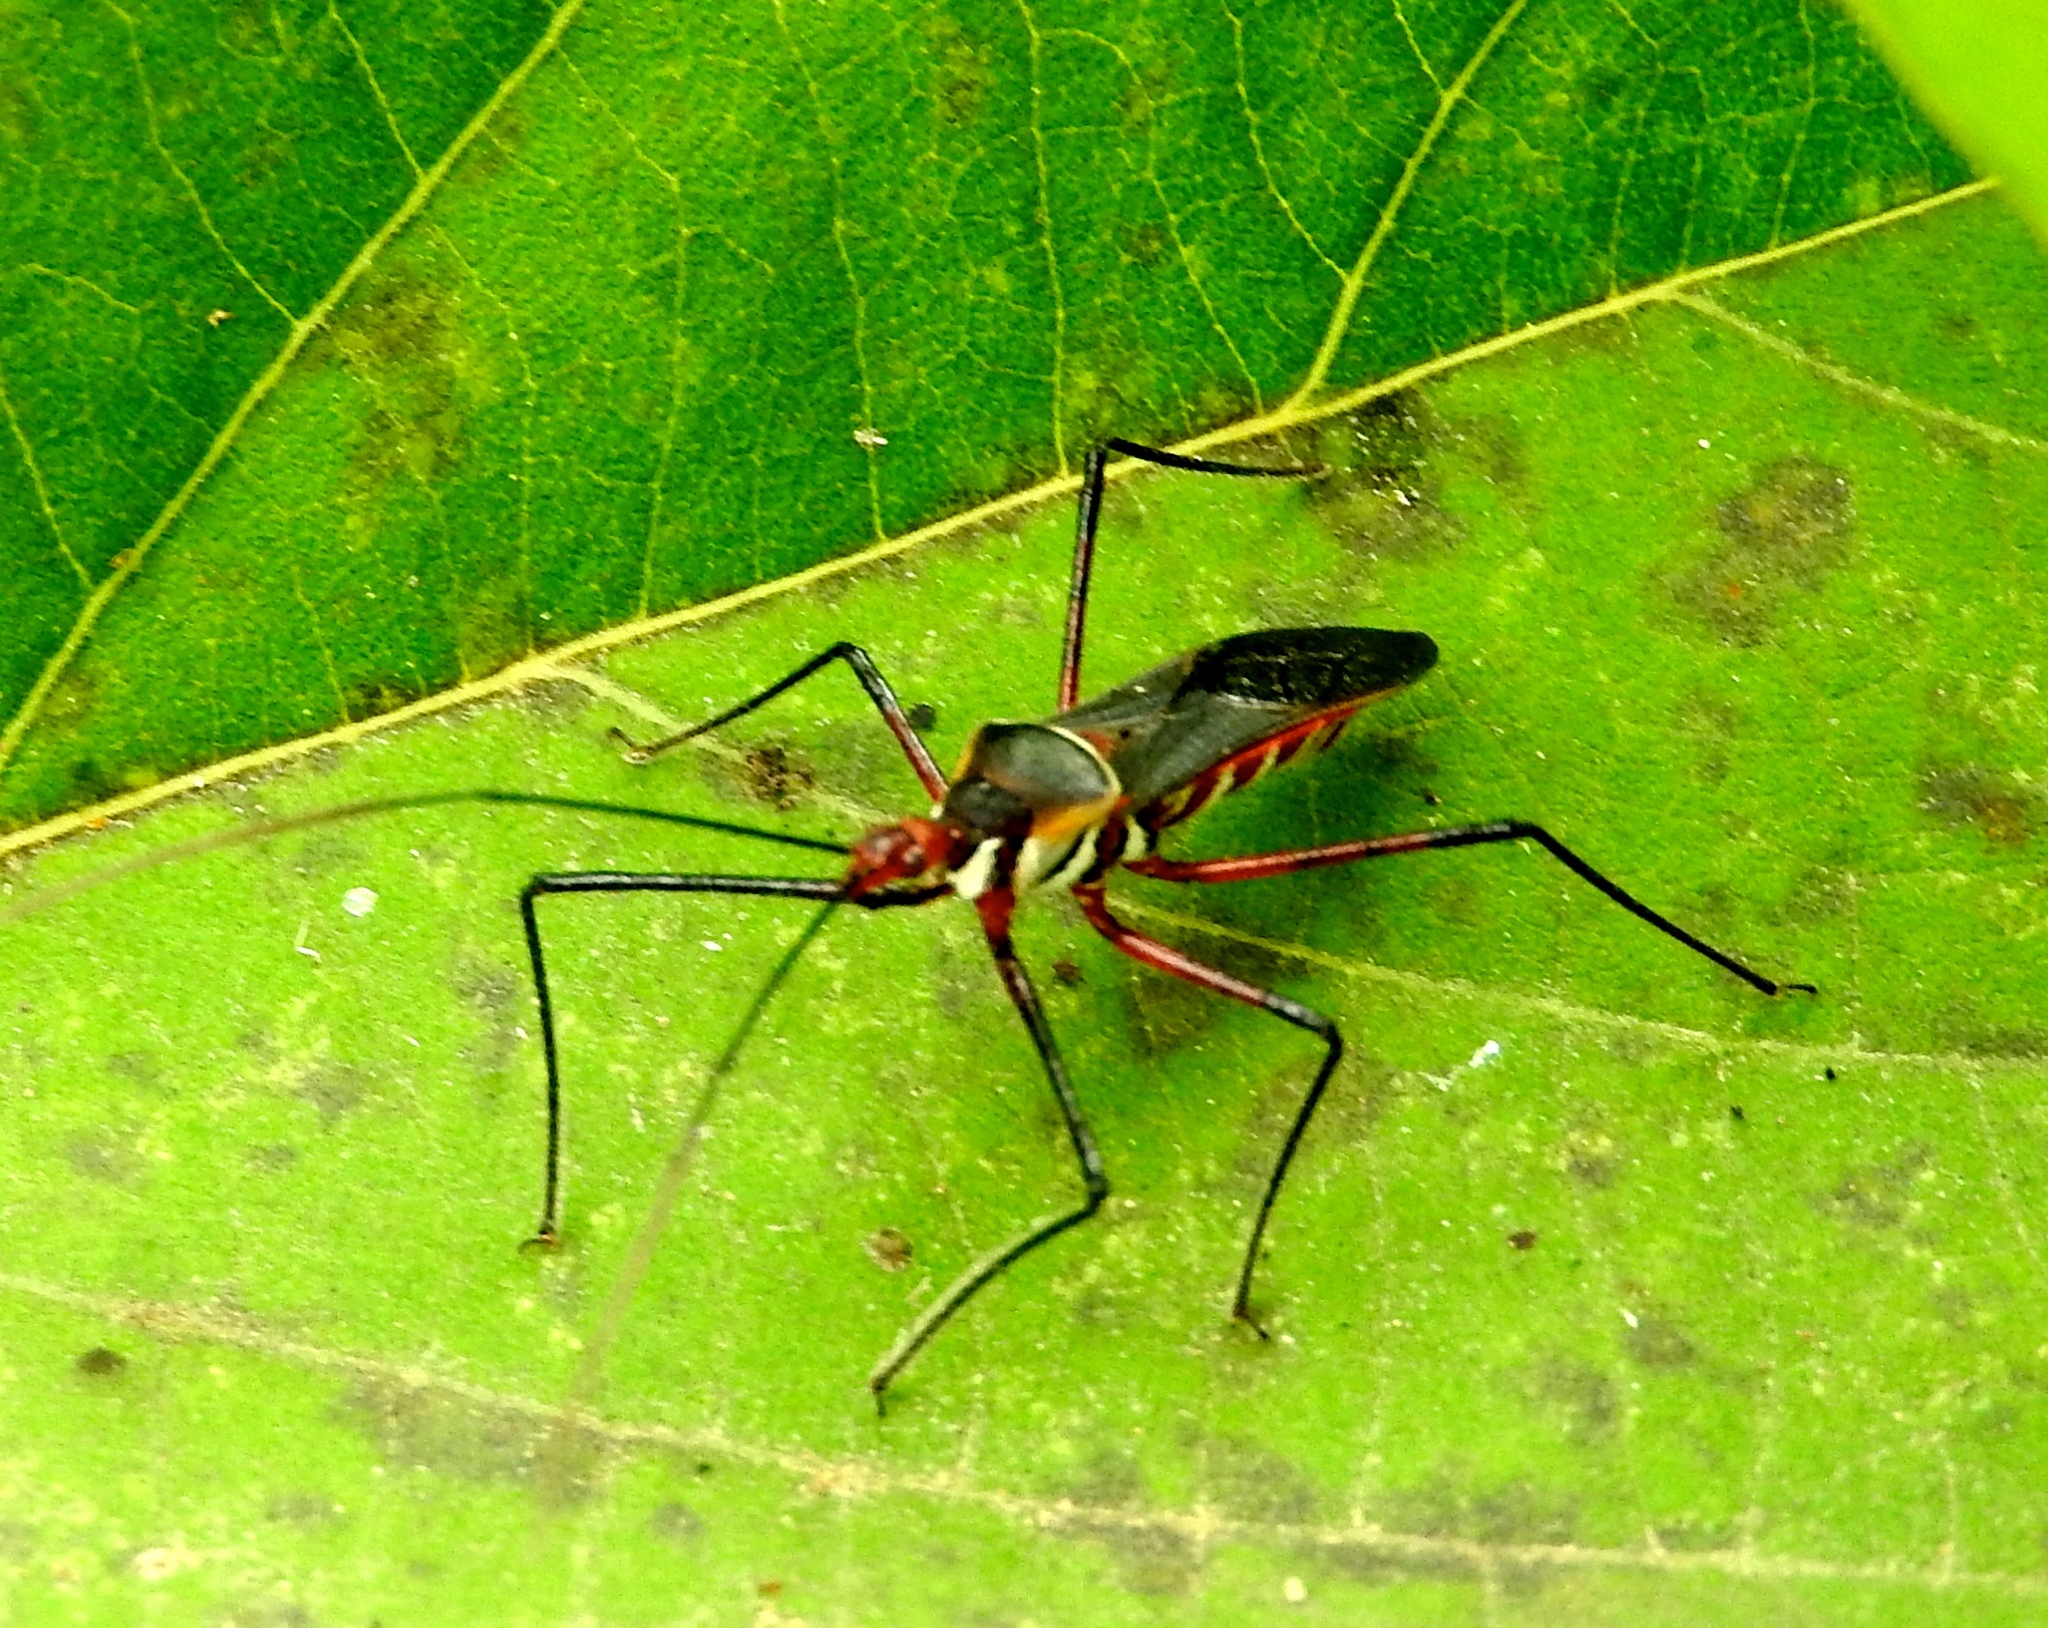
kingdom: Animalia
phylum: Arthropoda
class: Insecta
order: Hemiptera
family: Reduviidae
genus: Zelus
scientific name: Zelus grassans
